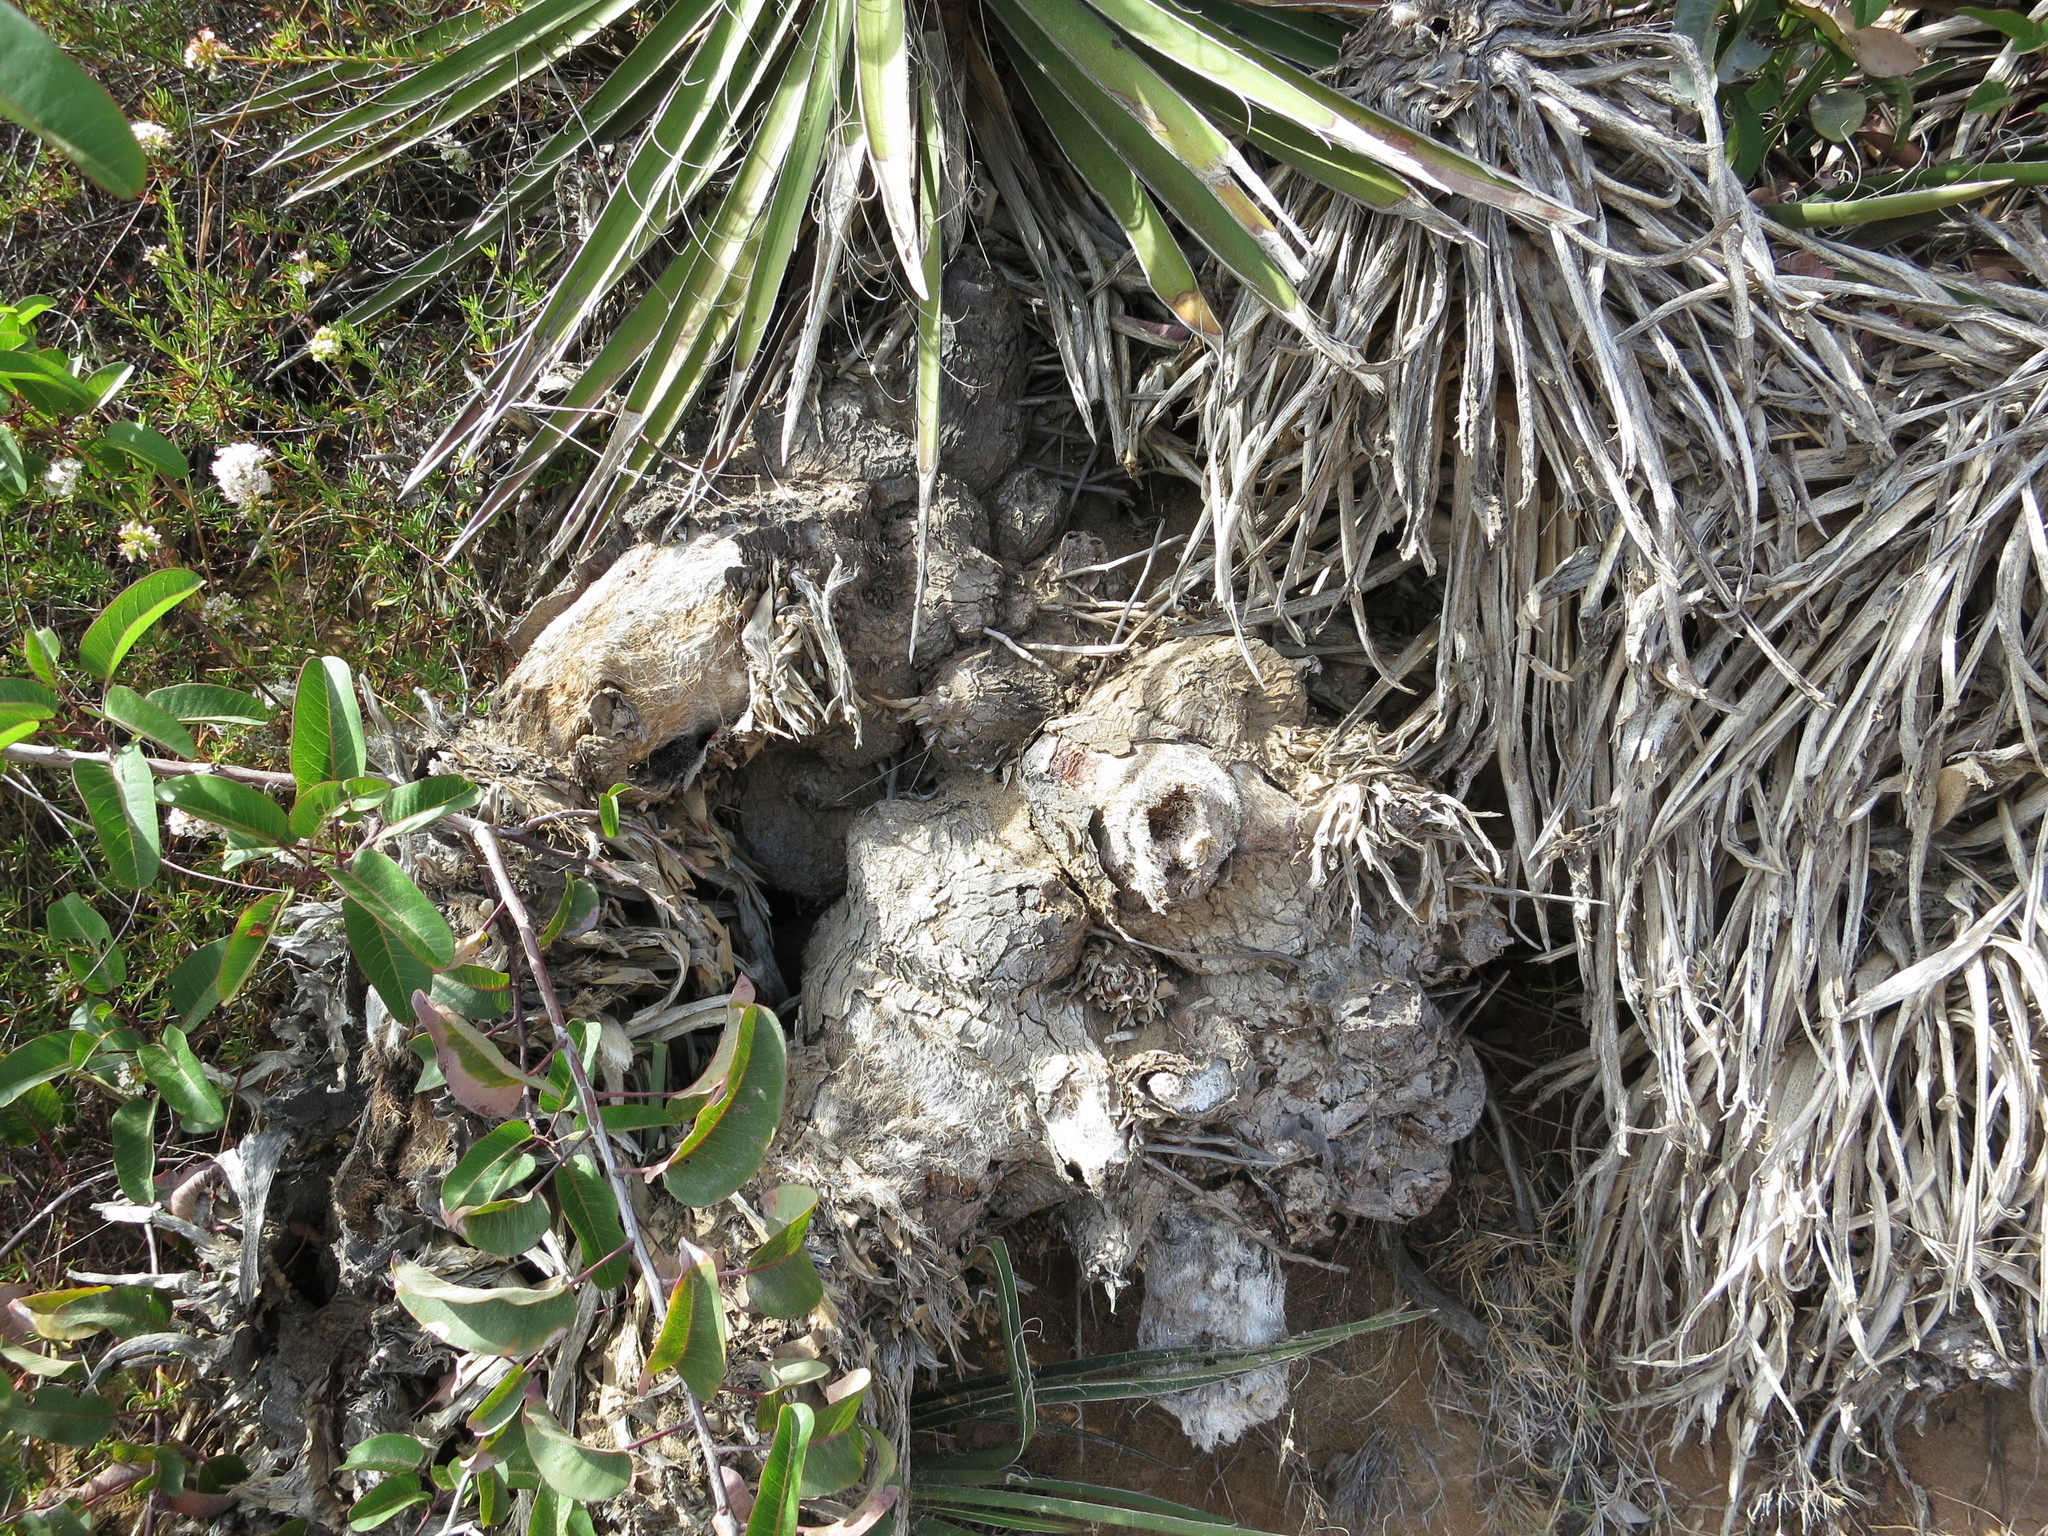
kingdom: Plantae
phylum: Tracheophyta
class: Liliopsida
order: Asparagales
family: Asparagaceae
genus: Yucca
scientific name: Yucca schidigera
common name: Mojave yucca
